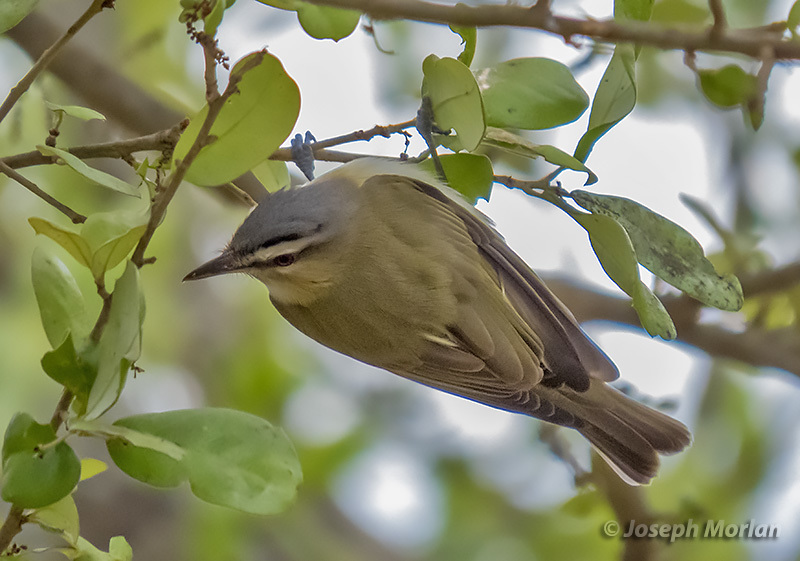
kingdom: Animalia
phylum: Chordata
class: Aves
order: Passeriformes
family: Vireonidae
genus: Vireo
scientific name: Vireo olivaceus
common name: Red-eyed vireo
